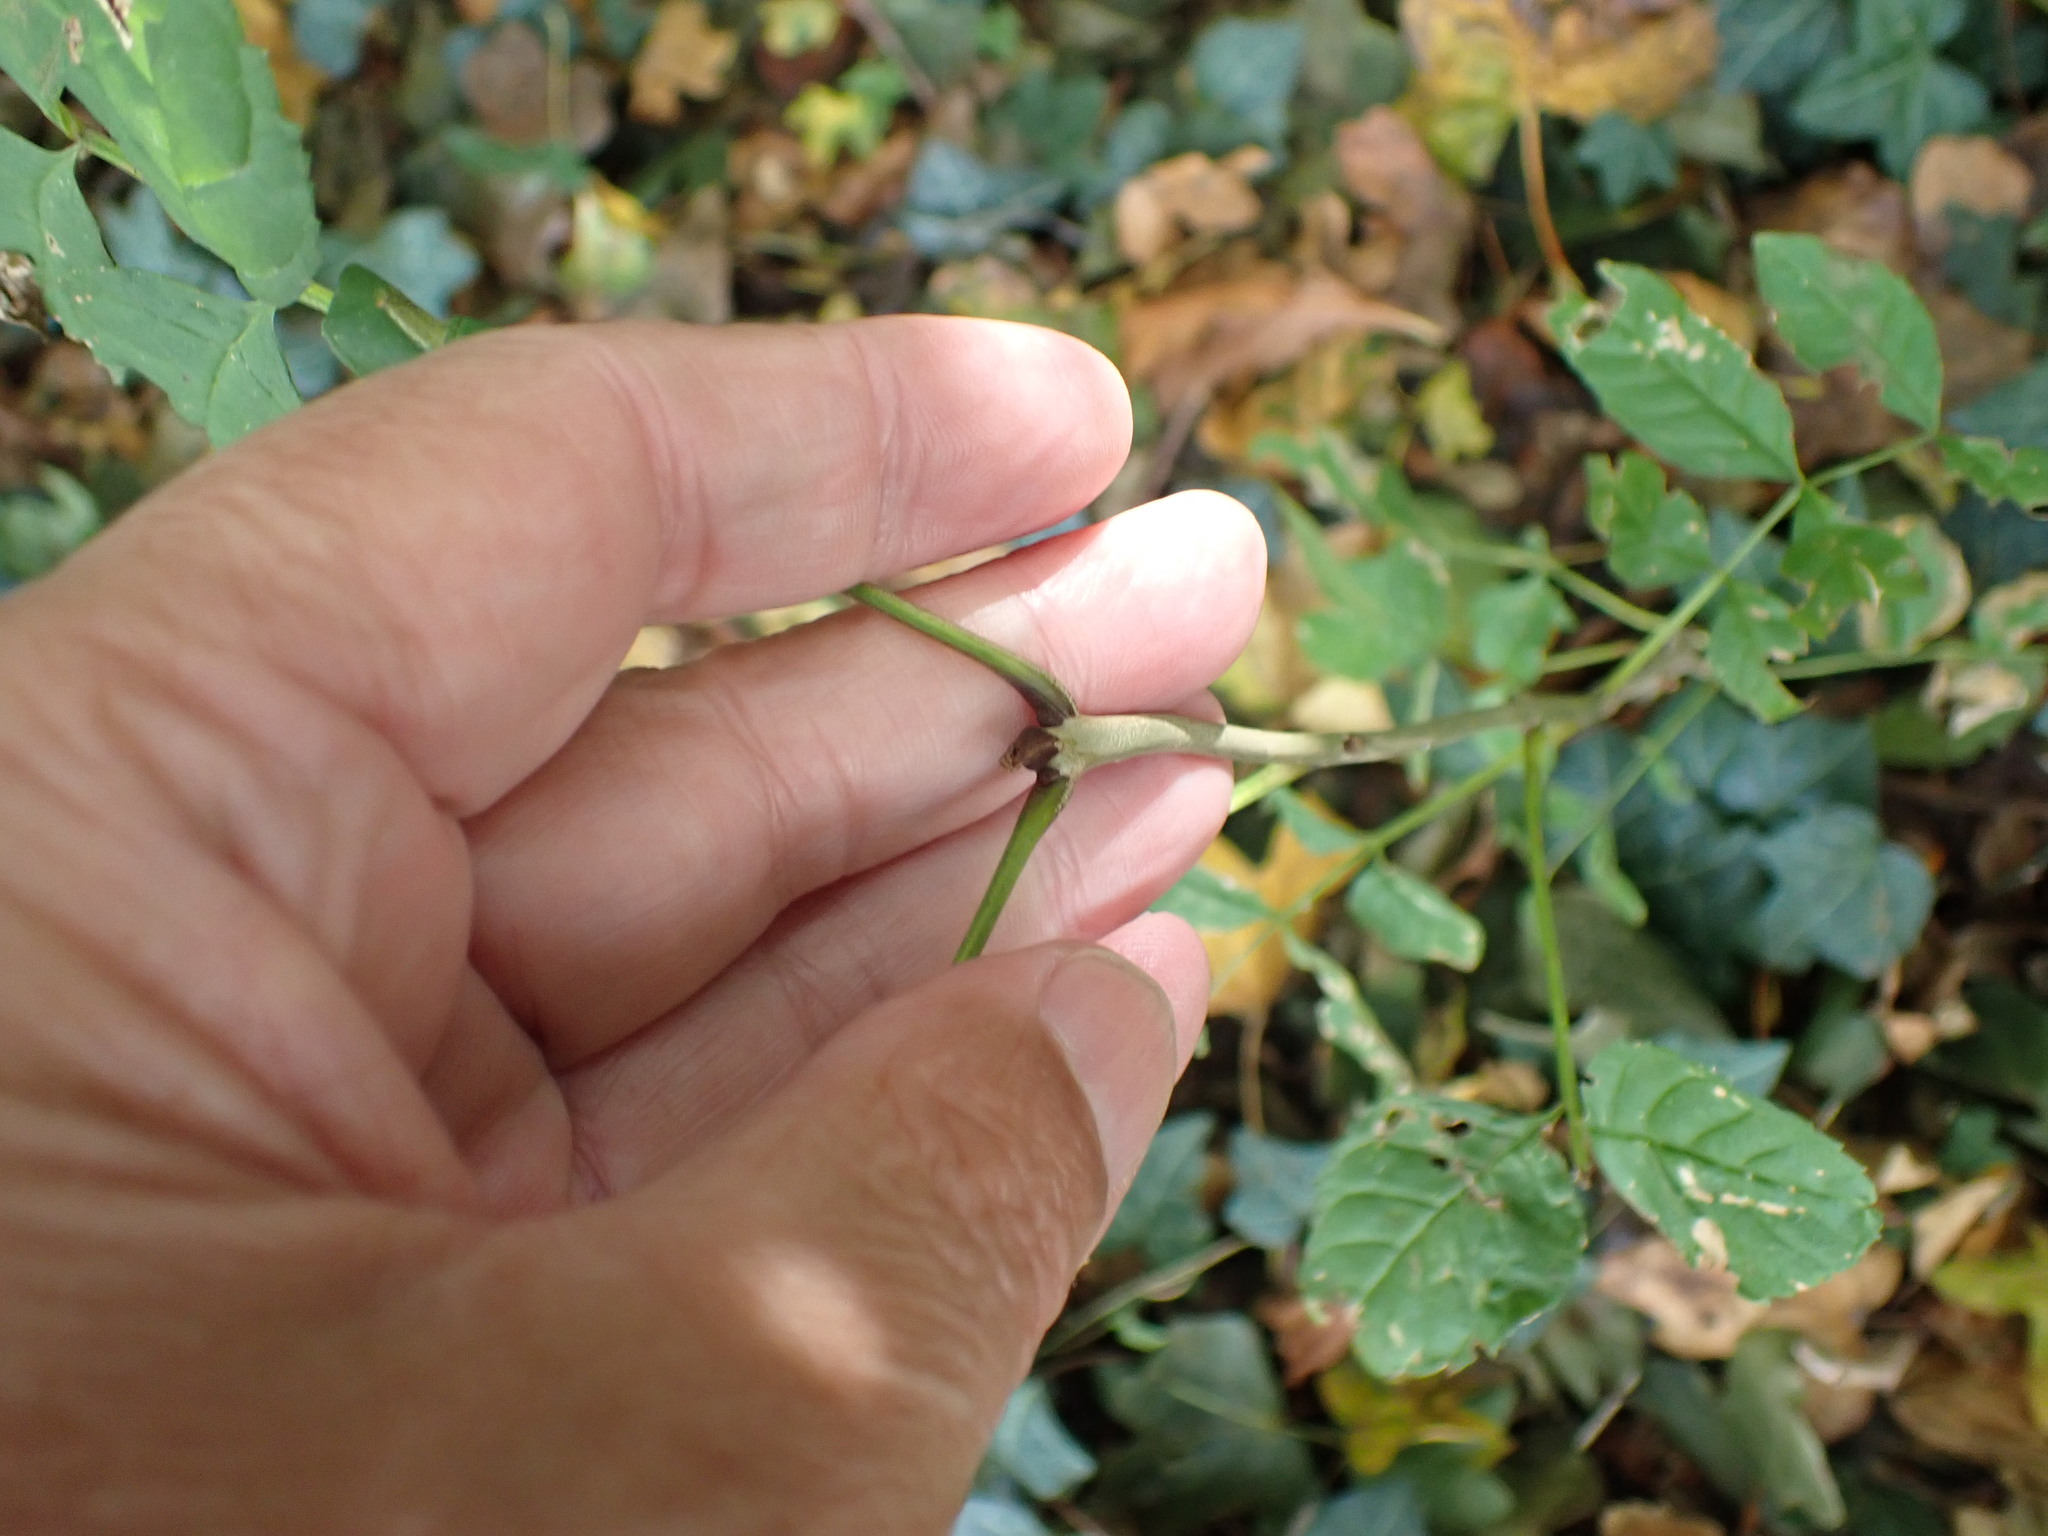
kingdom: Plantae
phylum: Tracheophyta
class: Magnoliopsida
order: Lamiales
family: Oleaceae
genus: Fraxinus
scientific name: Fraxinus excelsior
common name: European ash
